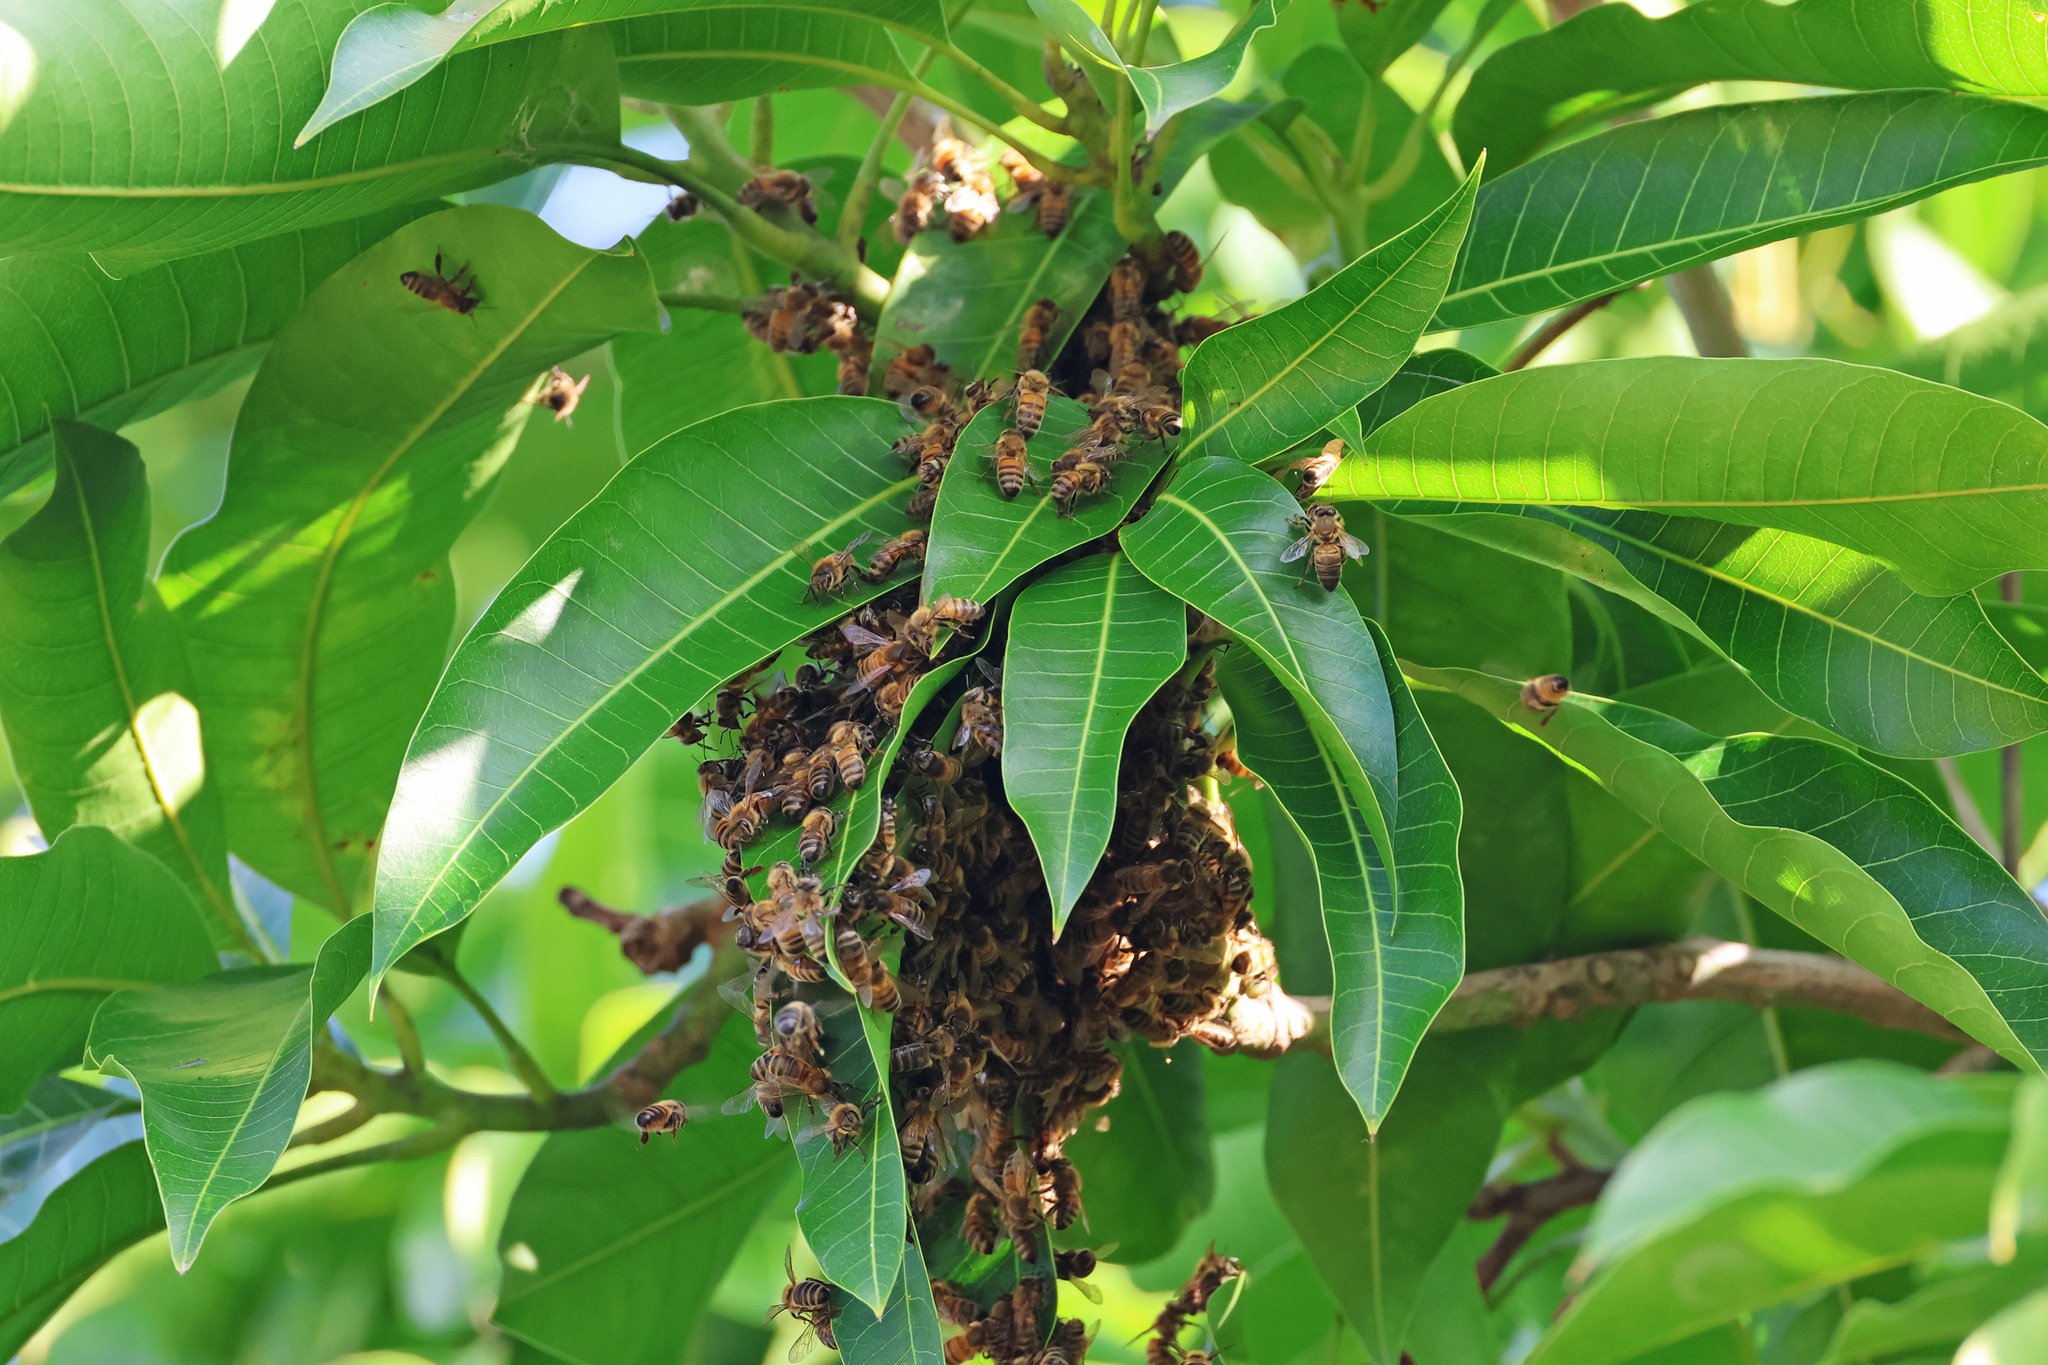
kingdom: Animalia
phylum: Arthropoda
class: Insecta
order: Hymenoptera
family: Apidae
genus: Apis
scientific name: Apis mellifera
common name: Honey bee
